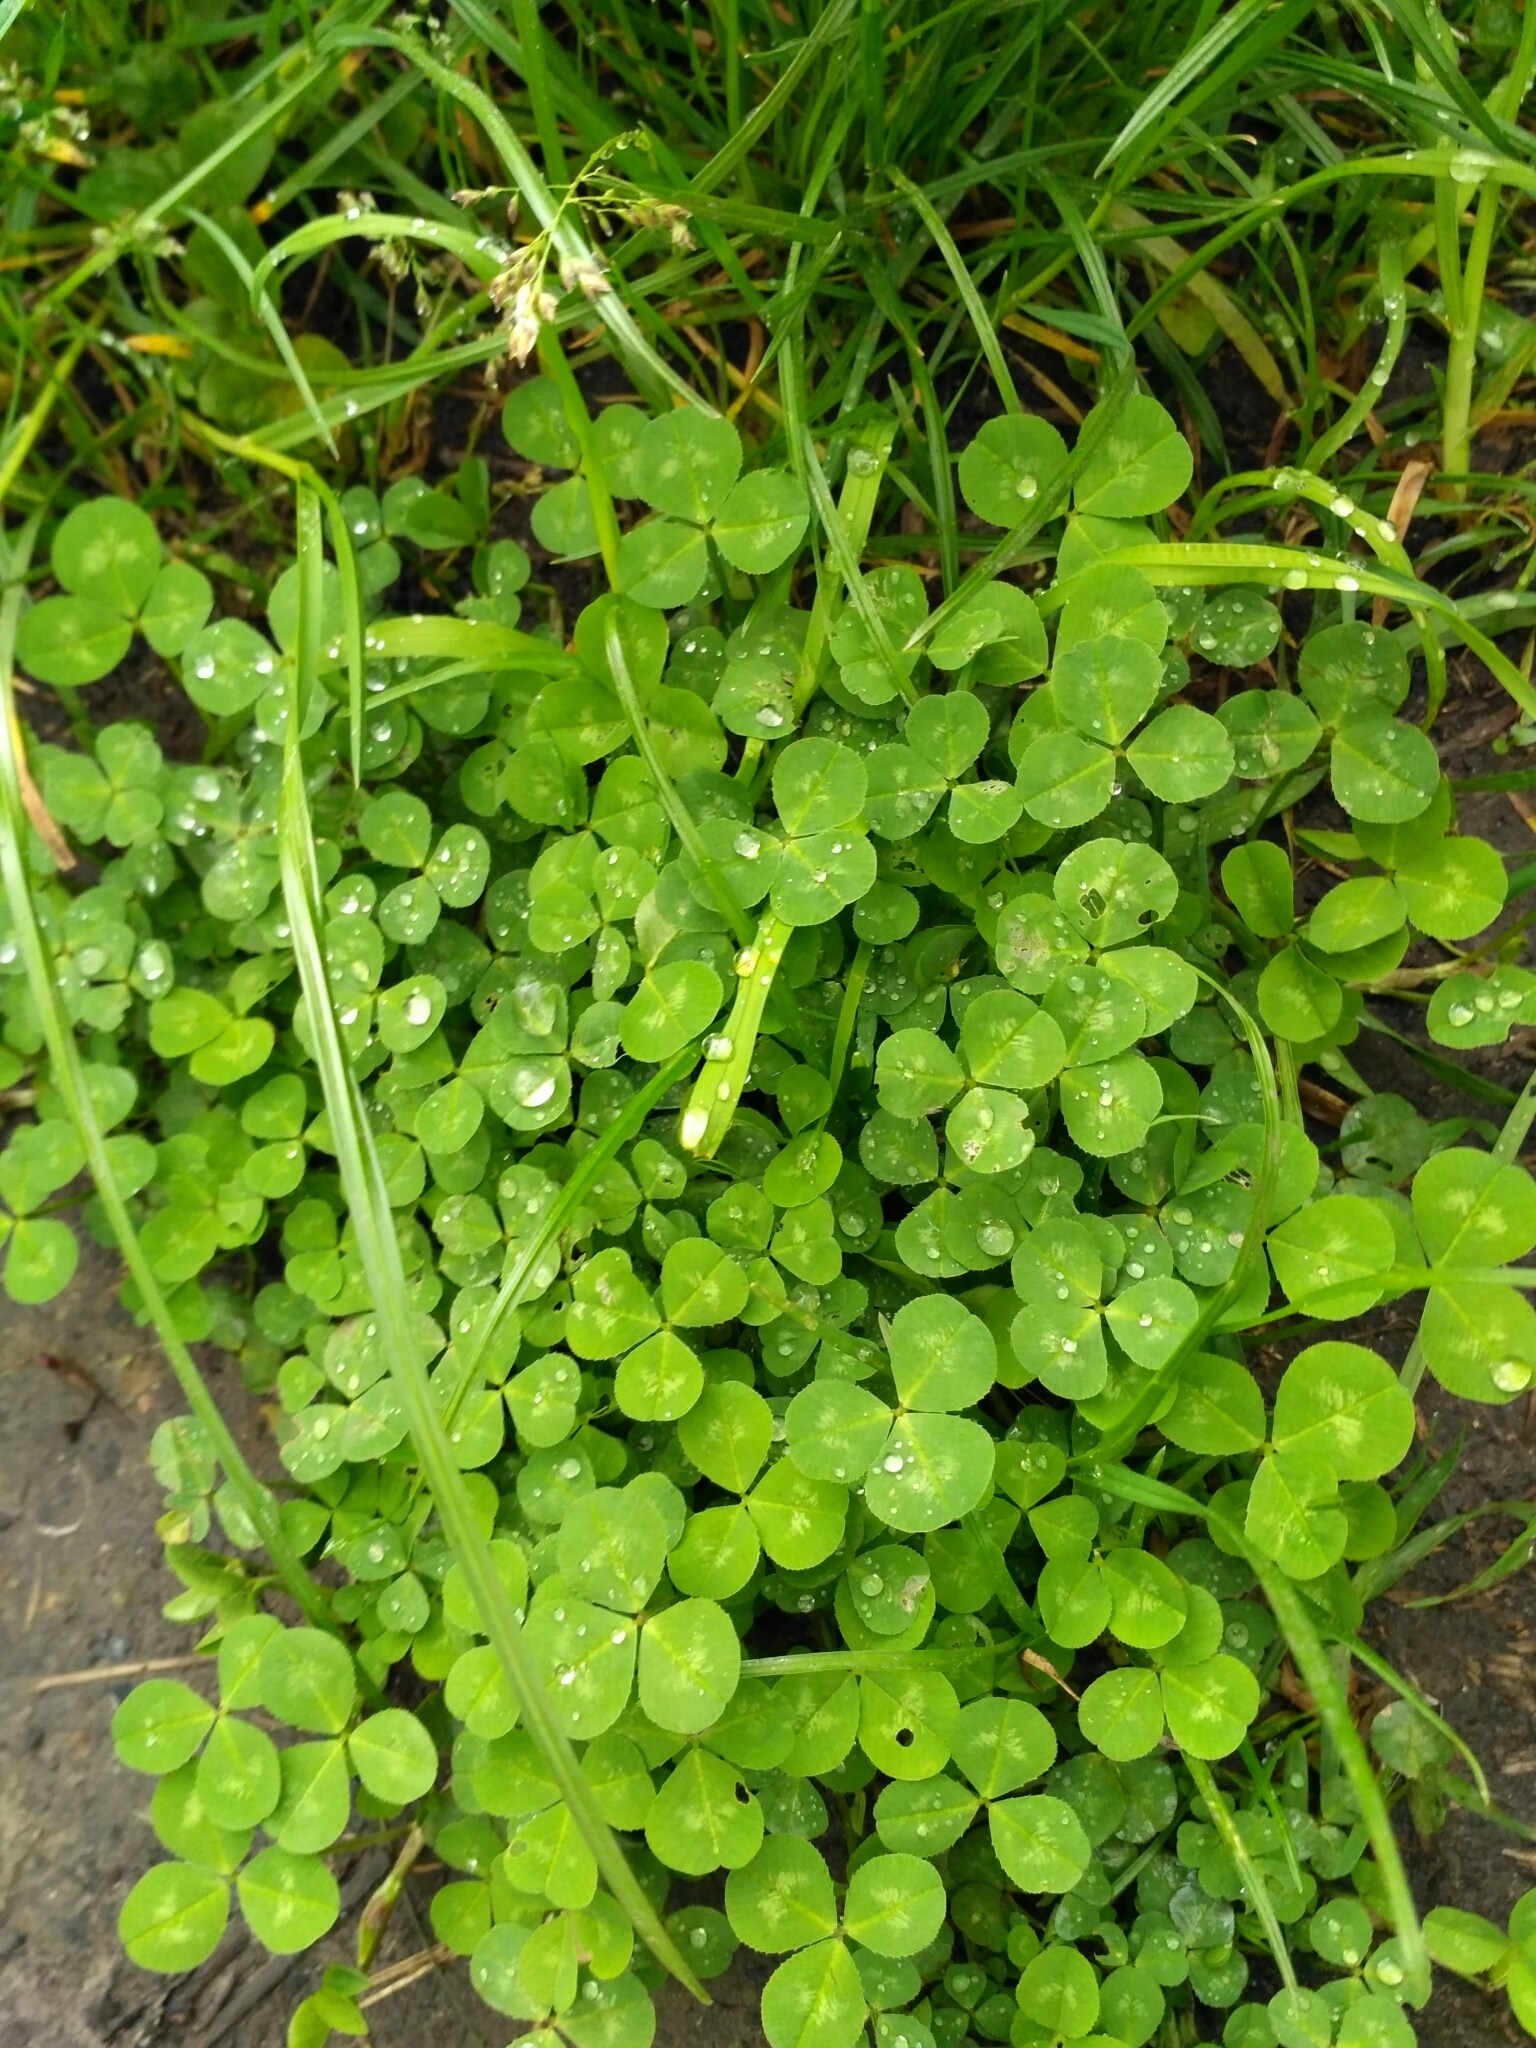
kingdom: Plantae
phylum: Tracheophyta
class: Magnoliopsida
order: Fabales
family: Fabaceae
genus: Trifolium
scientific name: Trifolium repens
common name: White clover
